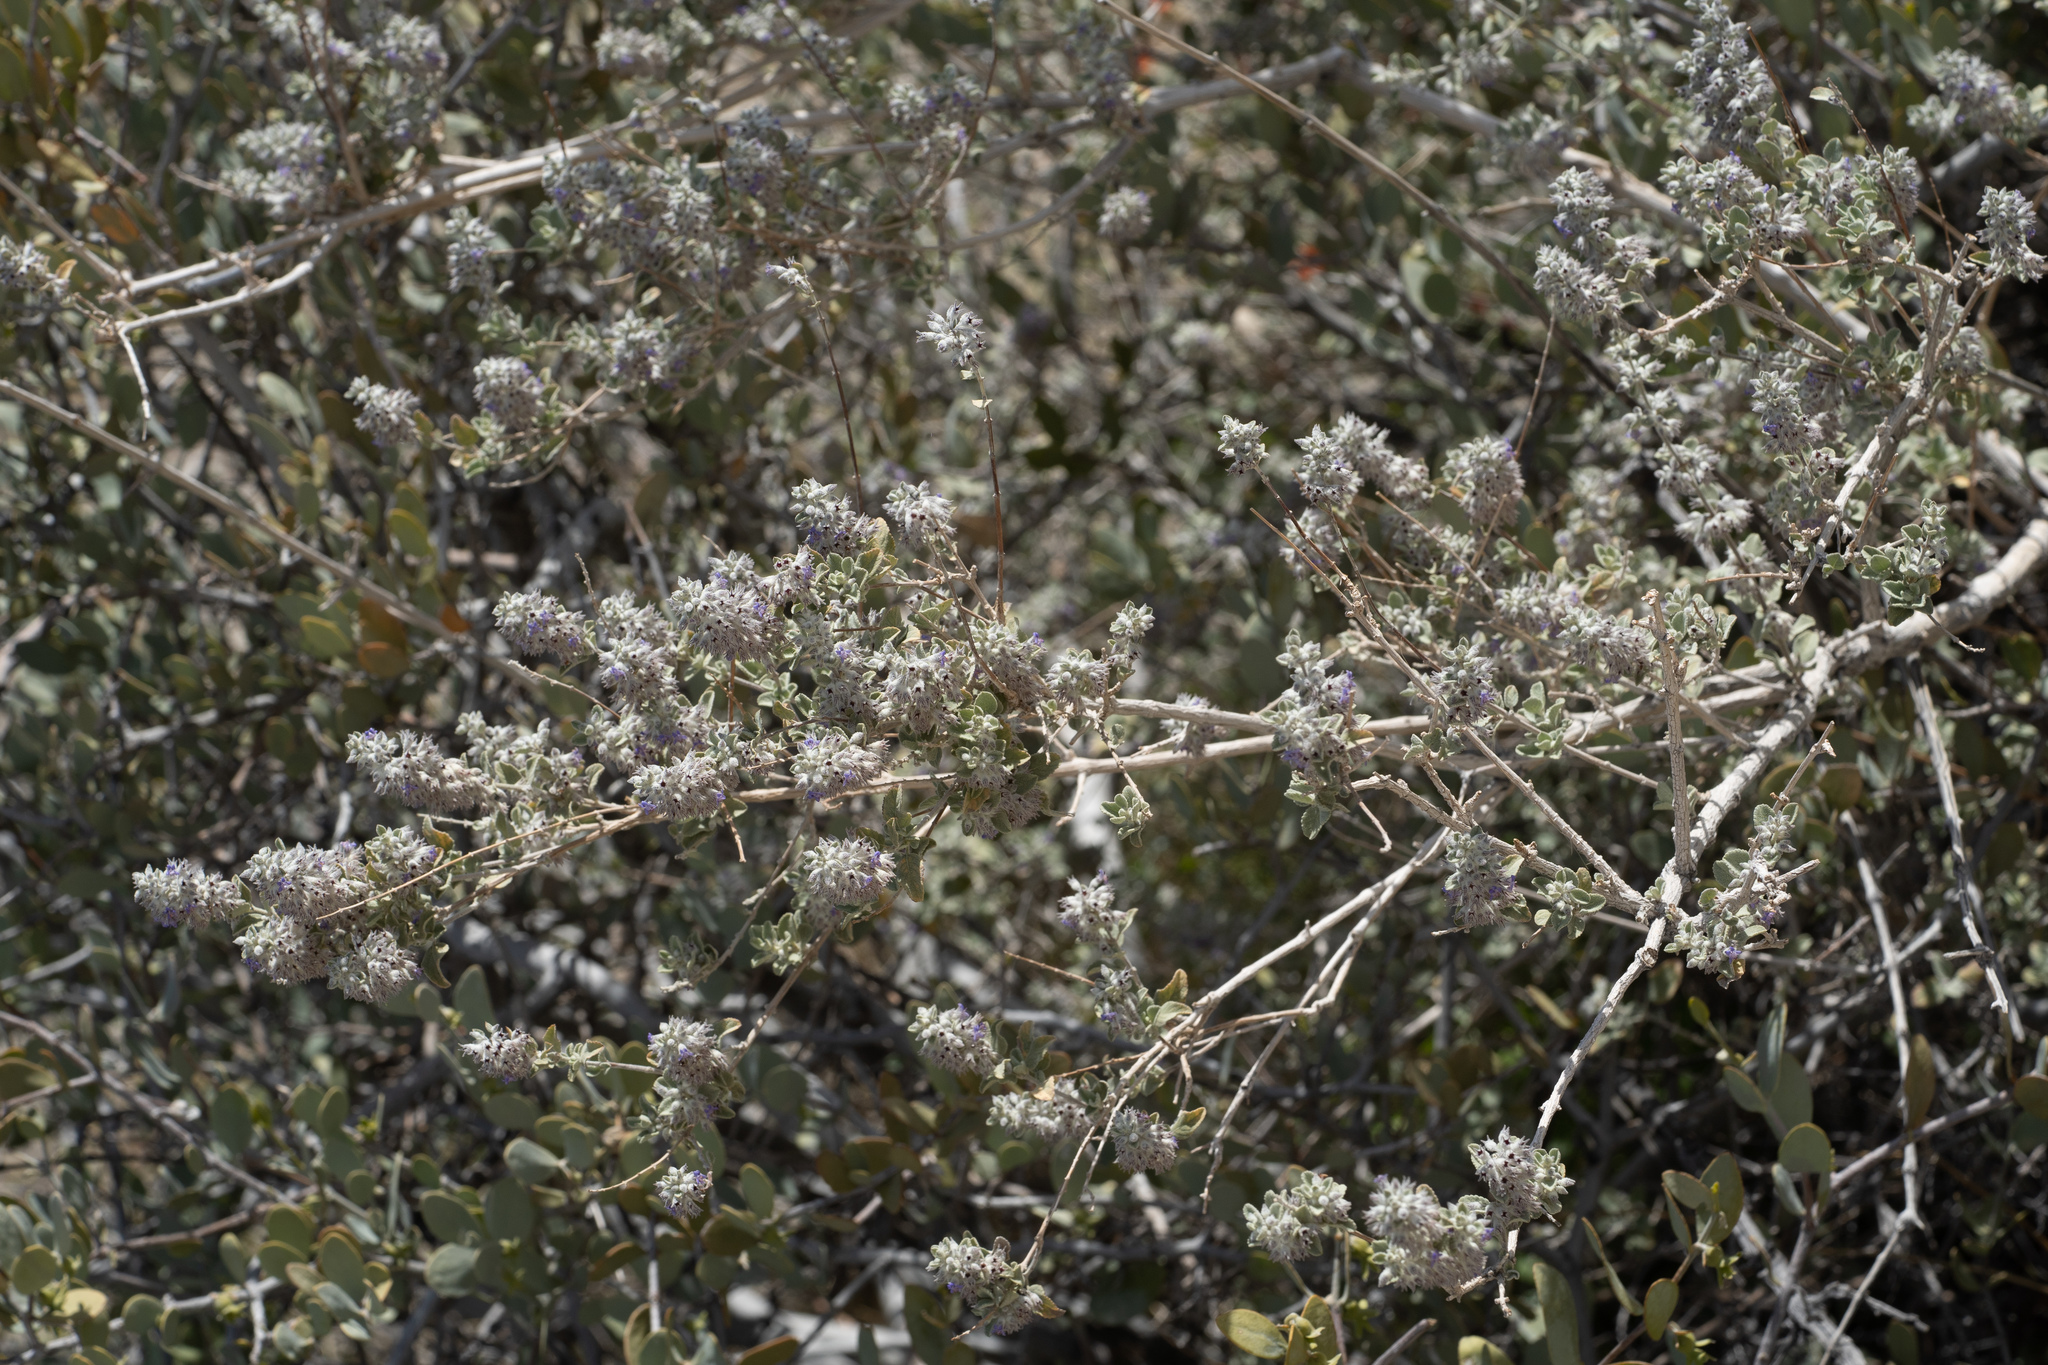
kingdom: Plantae
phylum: Tracheophyta
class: Magnoliopsida
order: Lamiales
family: Lamiaceae
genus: Condea
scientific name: Condea emoryi
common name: Chia
